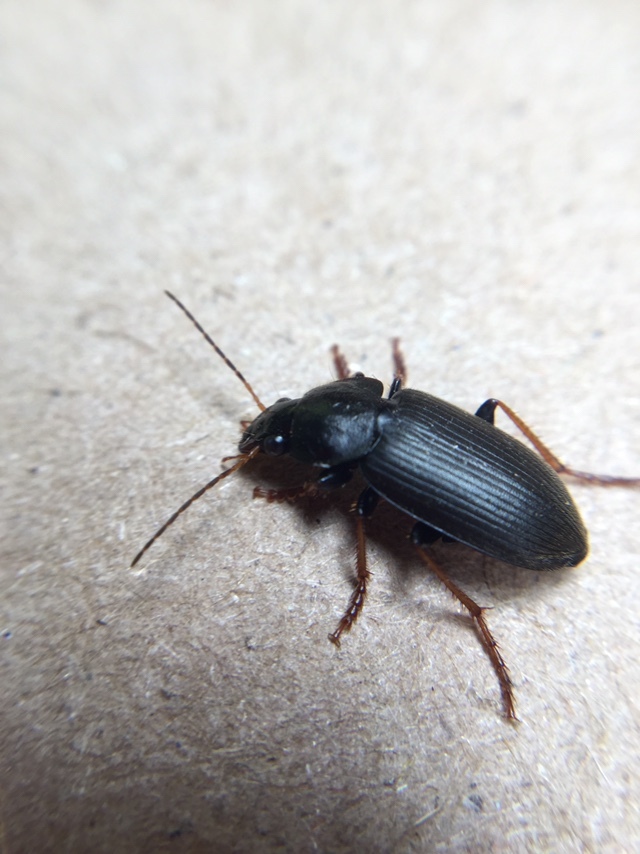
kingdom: Animalia
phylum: Arthropoda
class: Insecta
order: Coleoptera
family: Carabidae
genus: Amphasia
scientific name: Amphasia sericea
